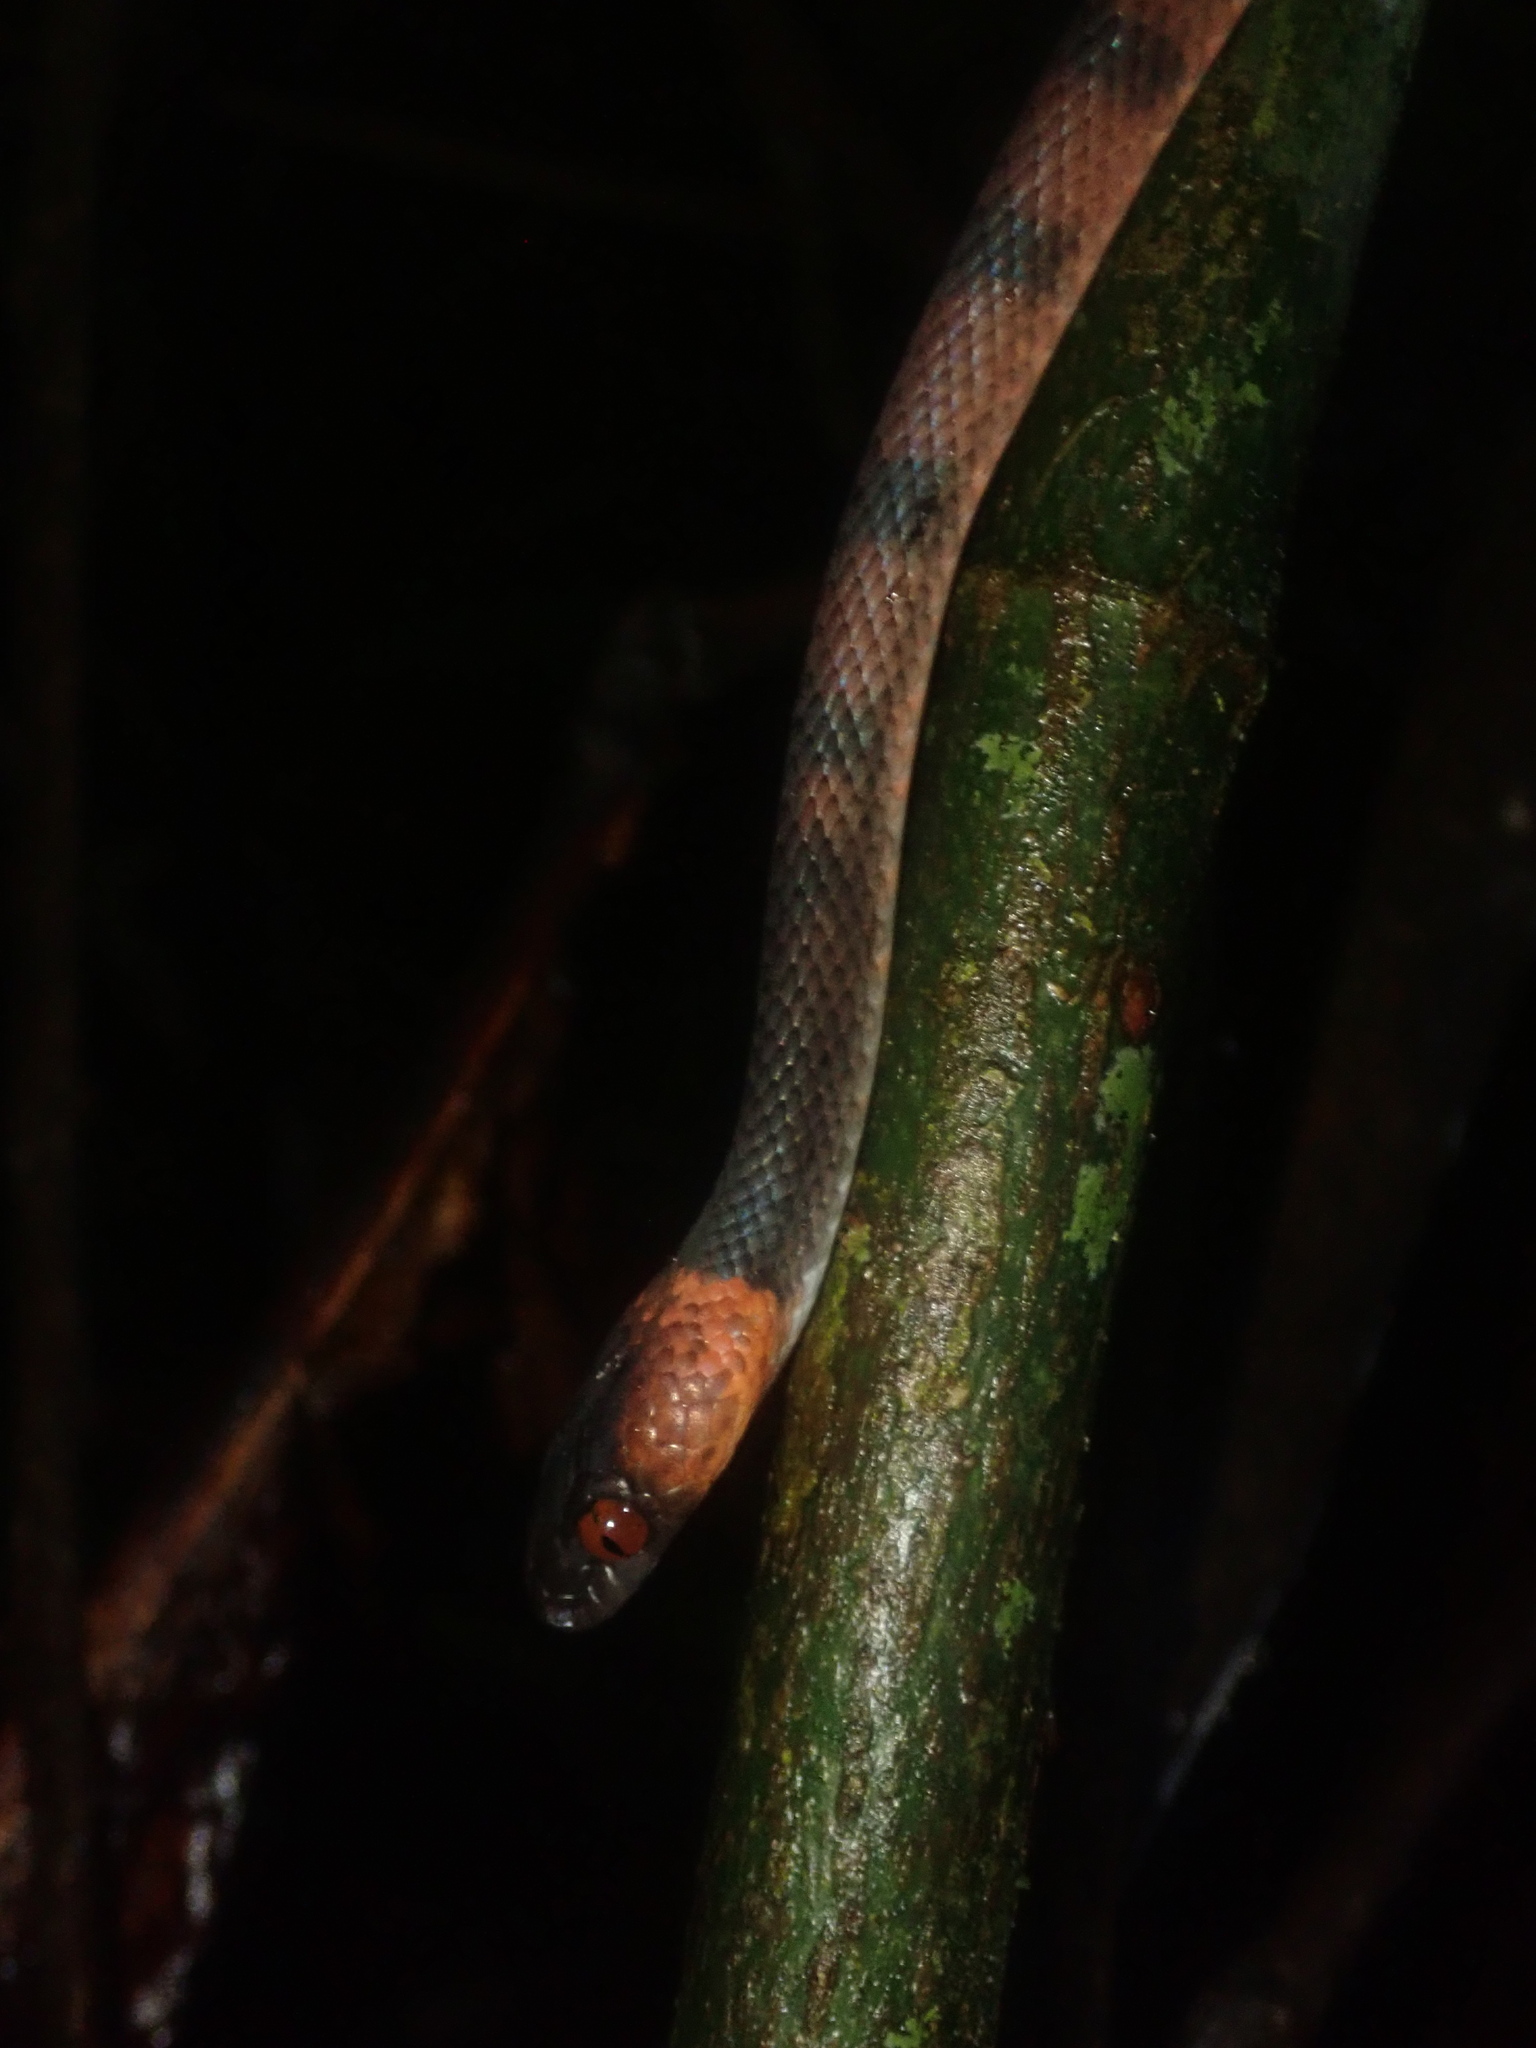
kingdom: Animalia
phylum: Chordata
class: Squamata
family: Colubridae
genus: Siphlophis
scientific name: Siphlophis compressus
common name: Tropical flat snake
